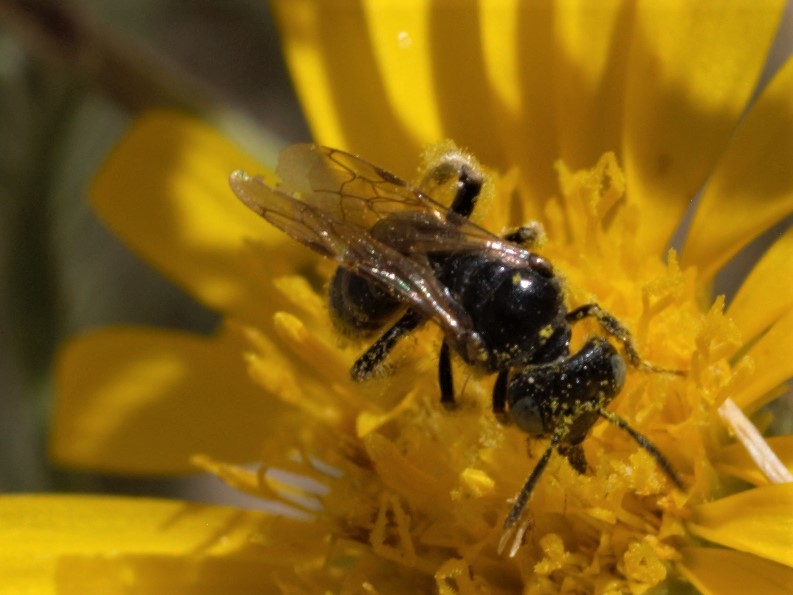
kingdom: Animalia
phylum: Arthropoda
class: Insecta
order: Hymenoptera
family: Andrenidae
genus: Pterosarus
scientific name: Pterosarus
